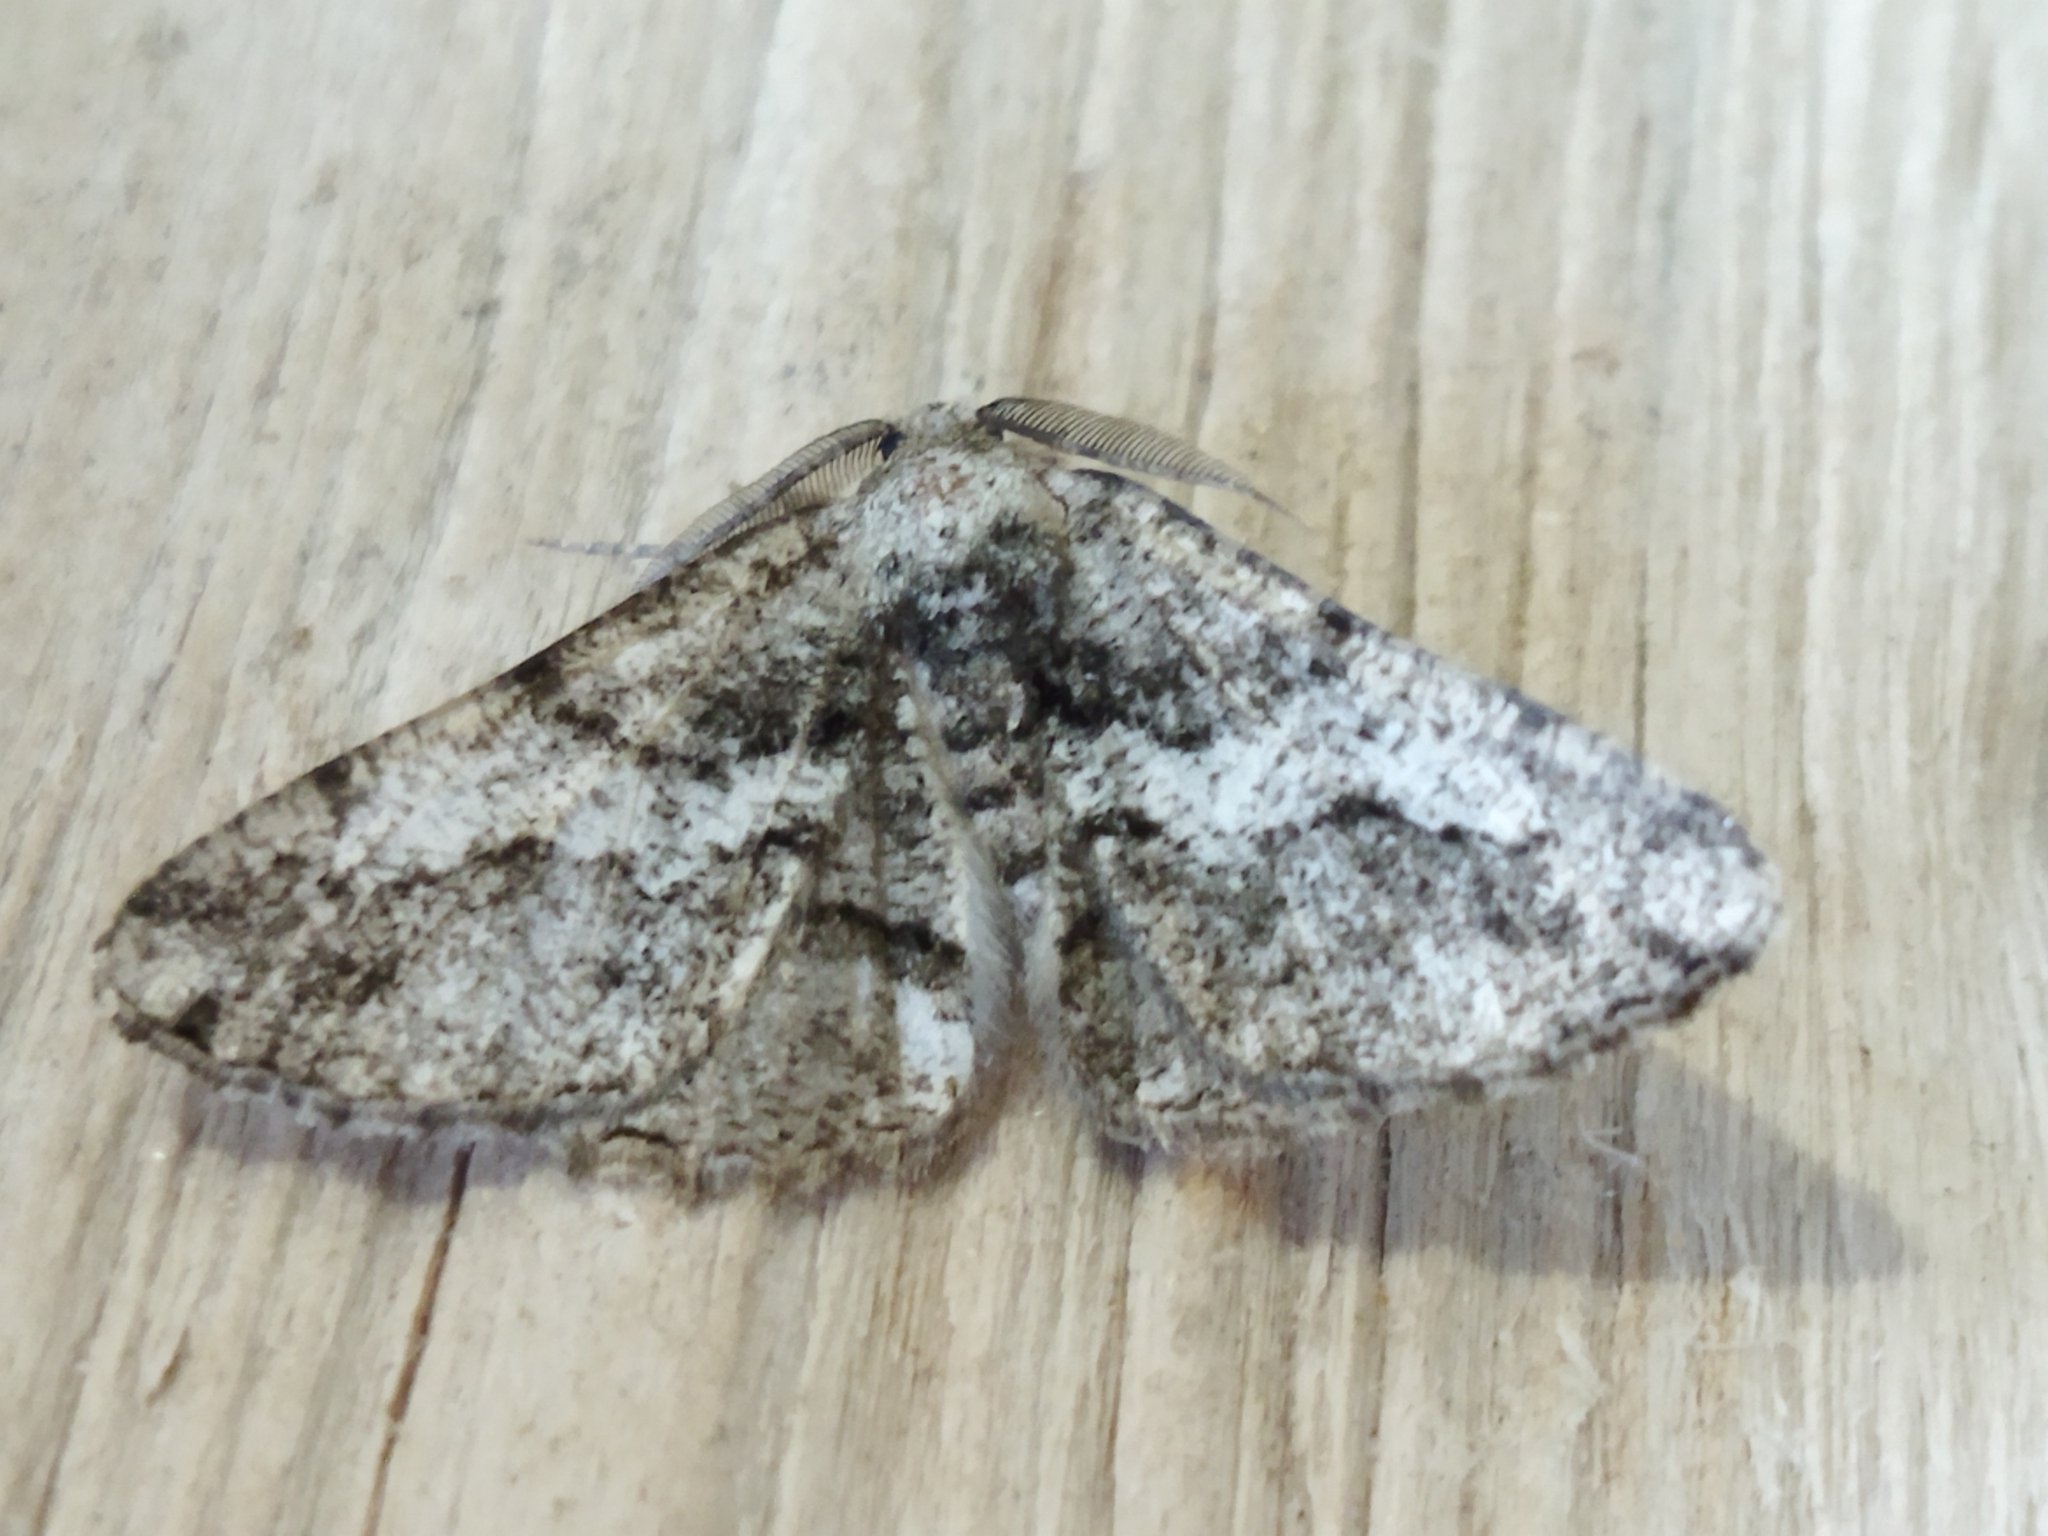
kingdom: Animalia
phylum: Arthropoda
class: Insecta
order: Lepidoptera
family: Geometridae
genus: Synopsia
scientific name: Synopsia sociaria
